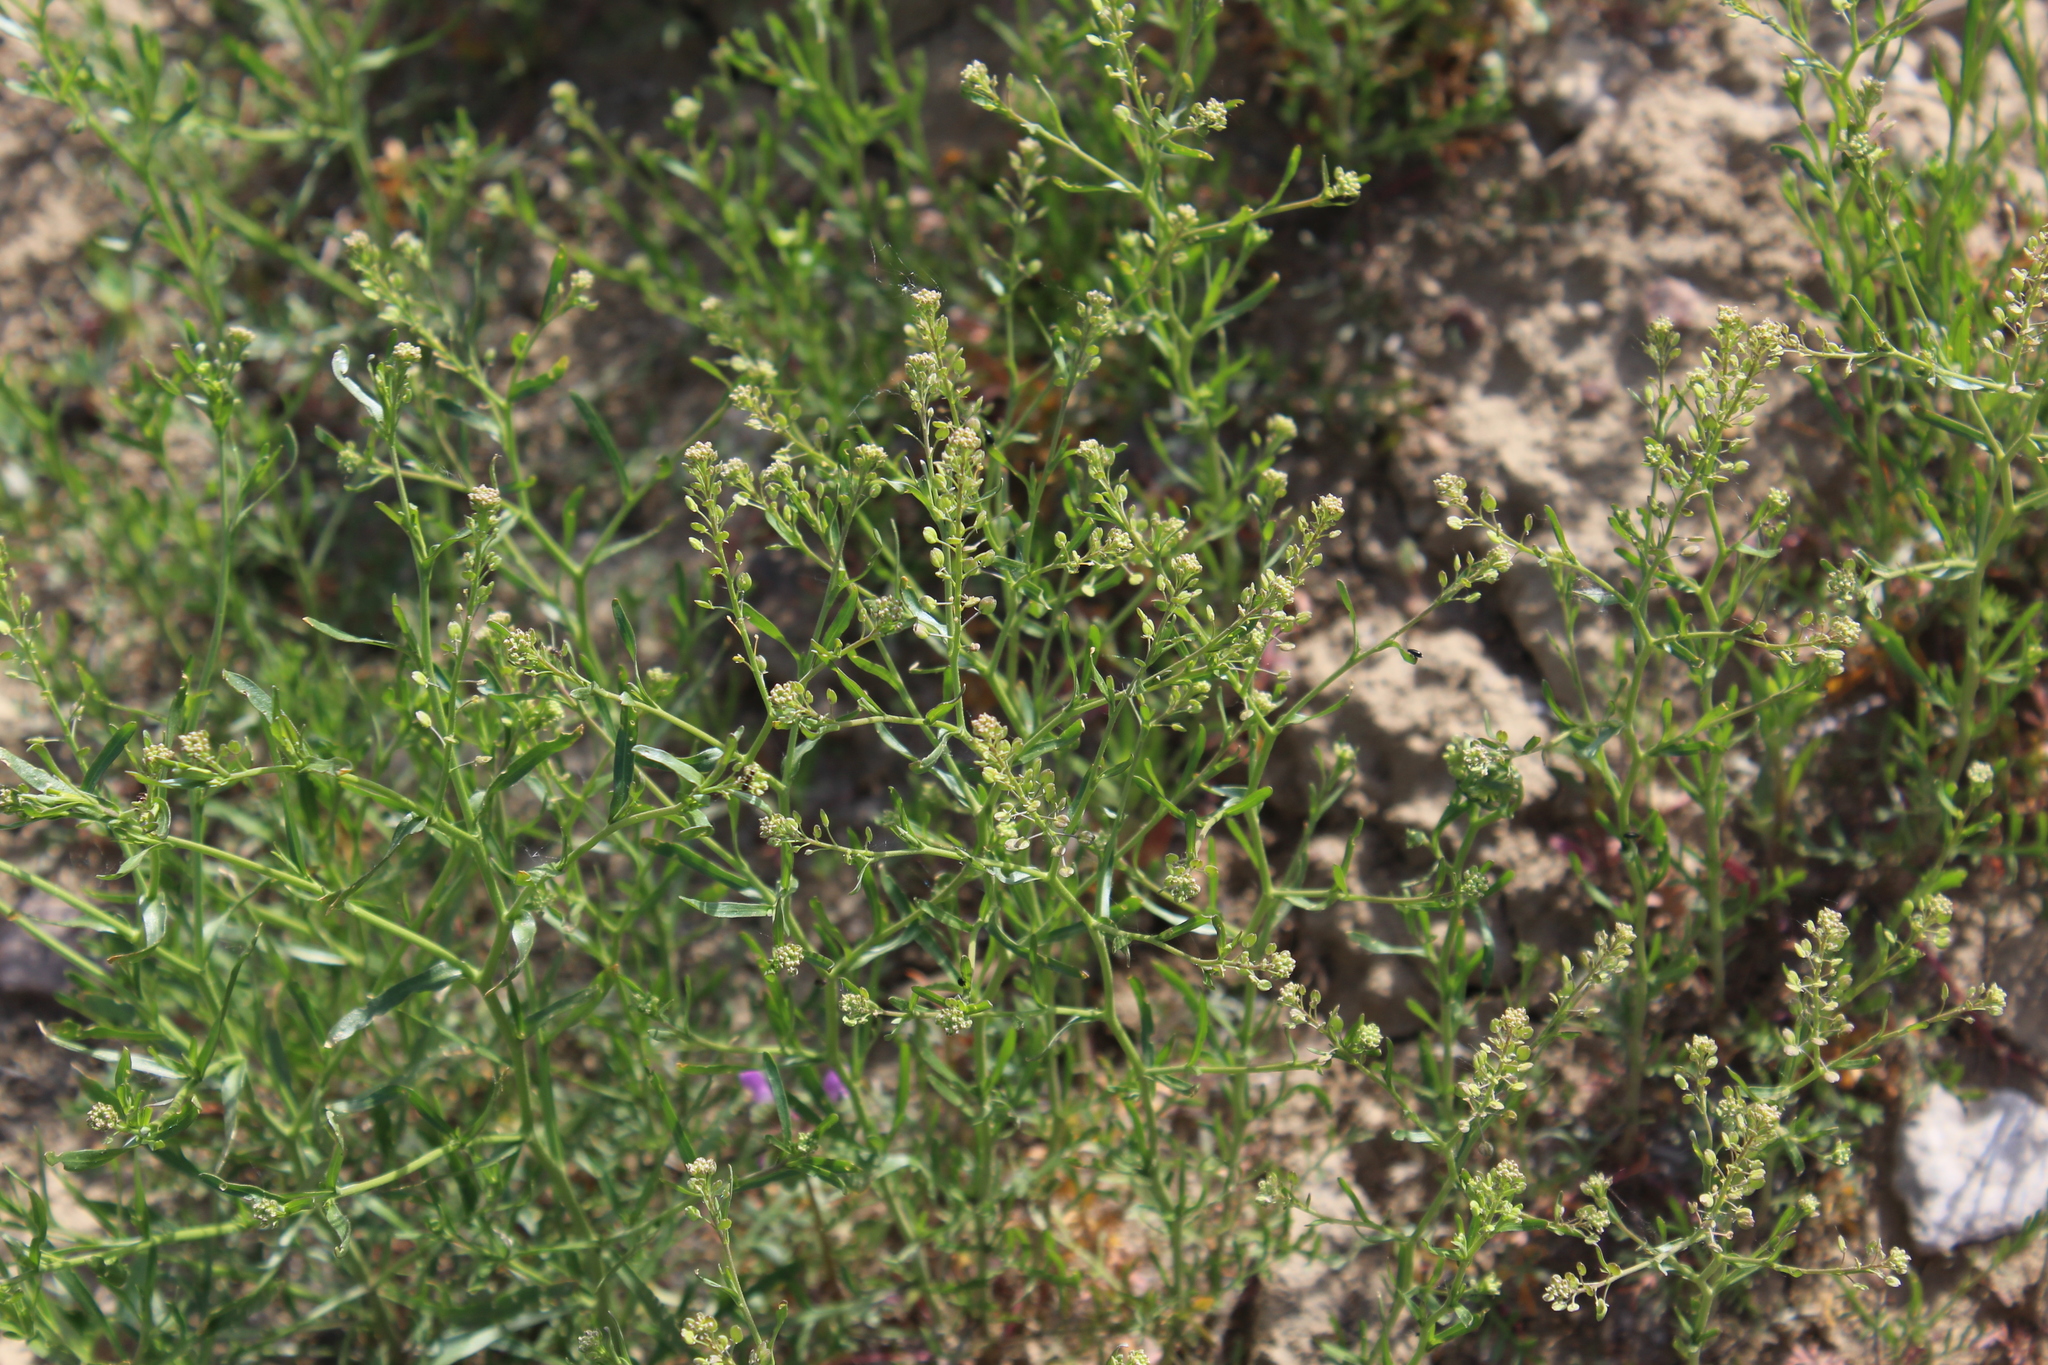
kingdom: Plantae
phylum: Tracheophyta
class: Magnoliopsida
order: Brassicales
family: Brassicaceae
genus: Lepidium
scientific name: Lepidium ruderale
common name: Narrow-leaved pepperwort
